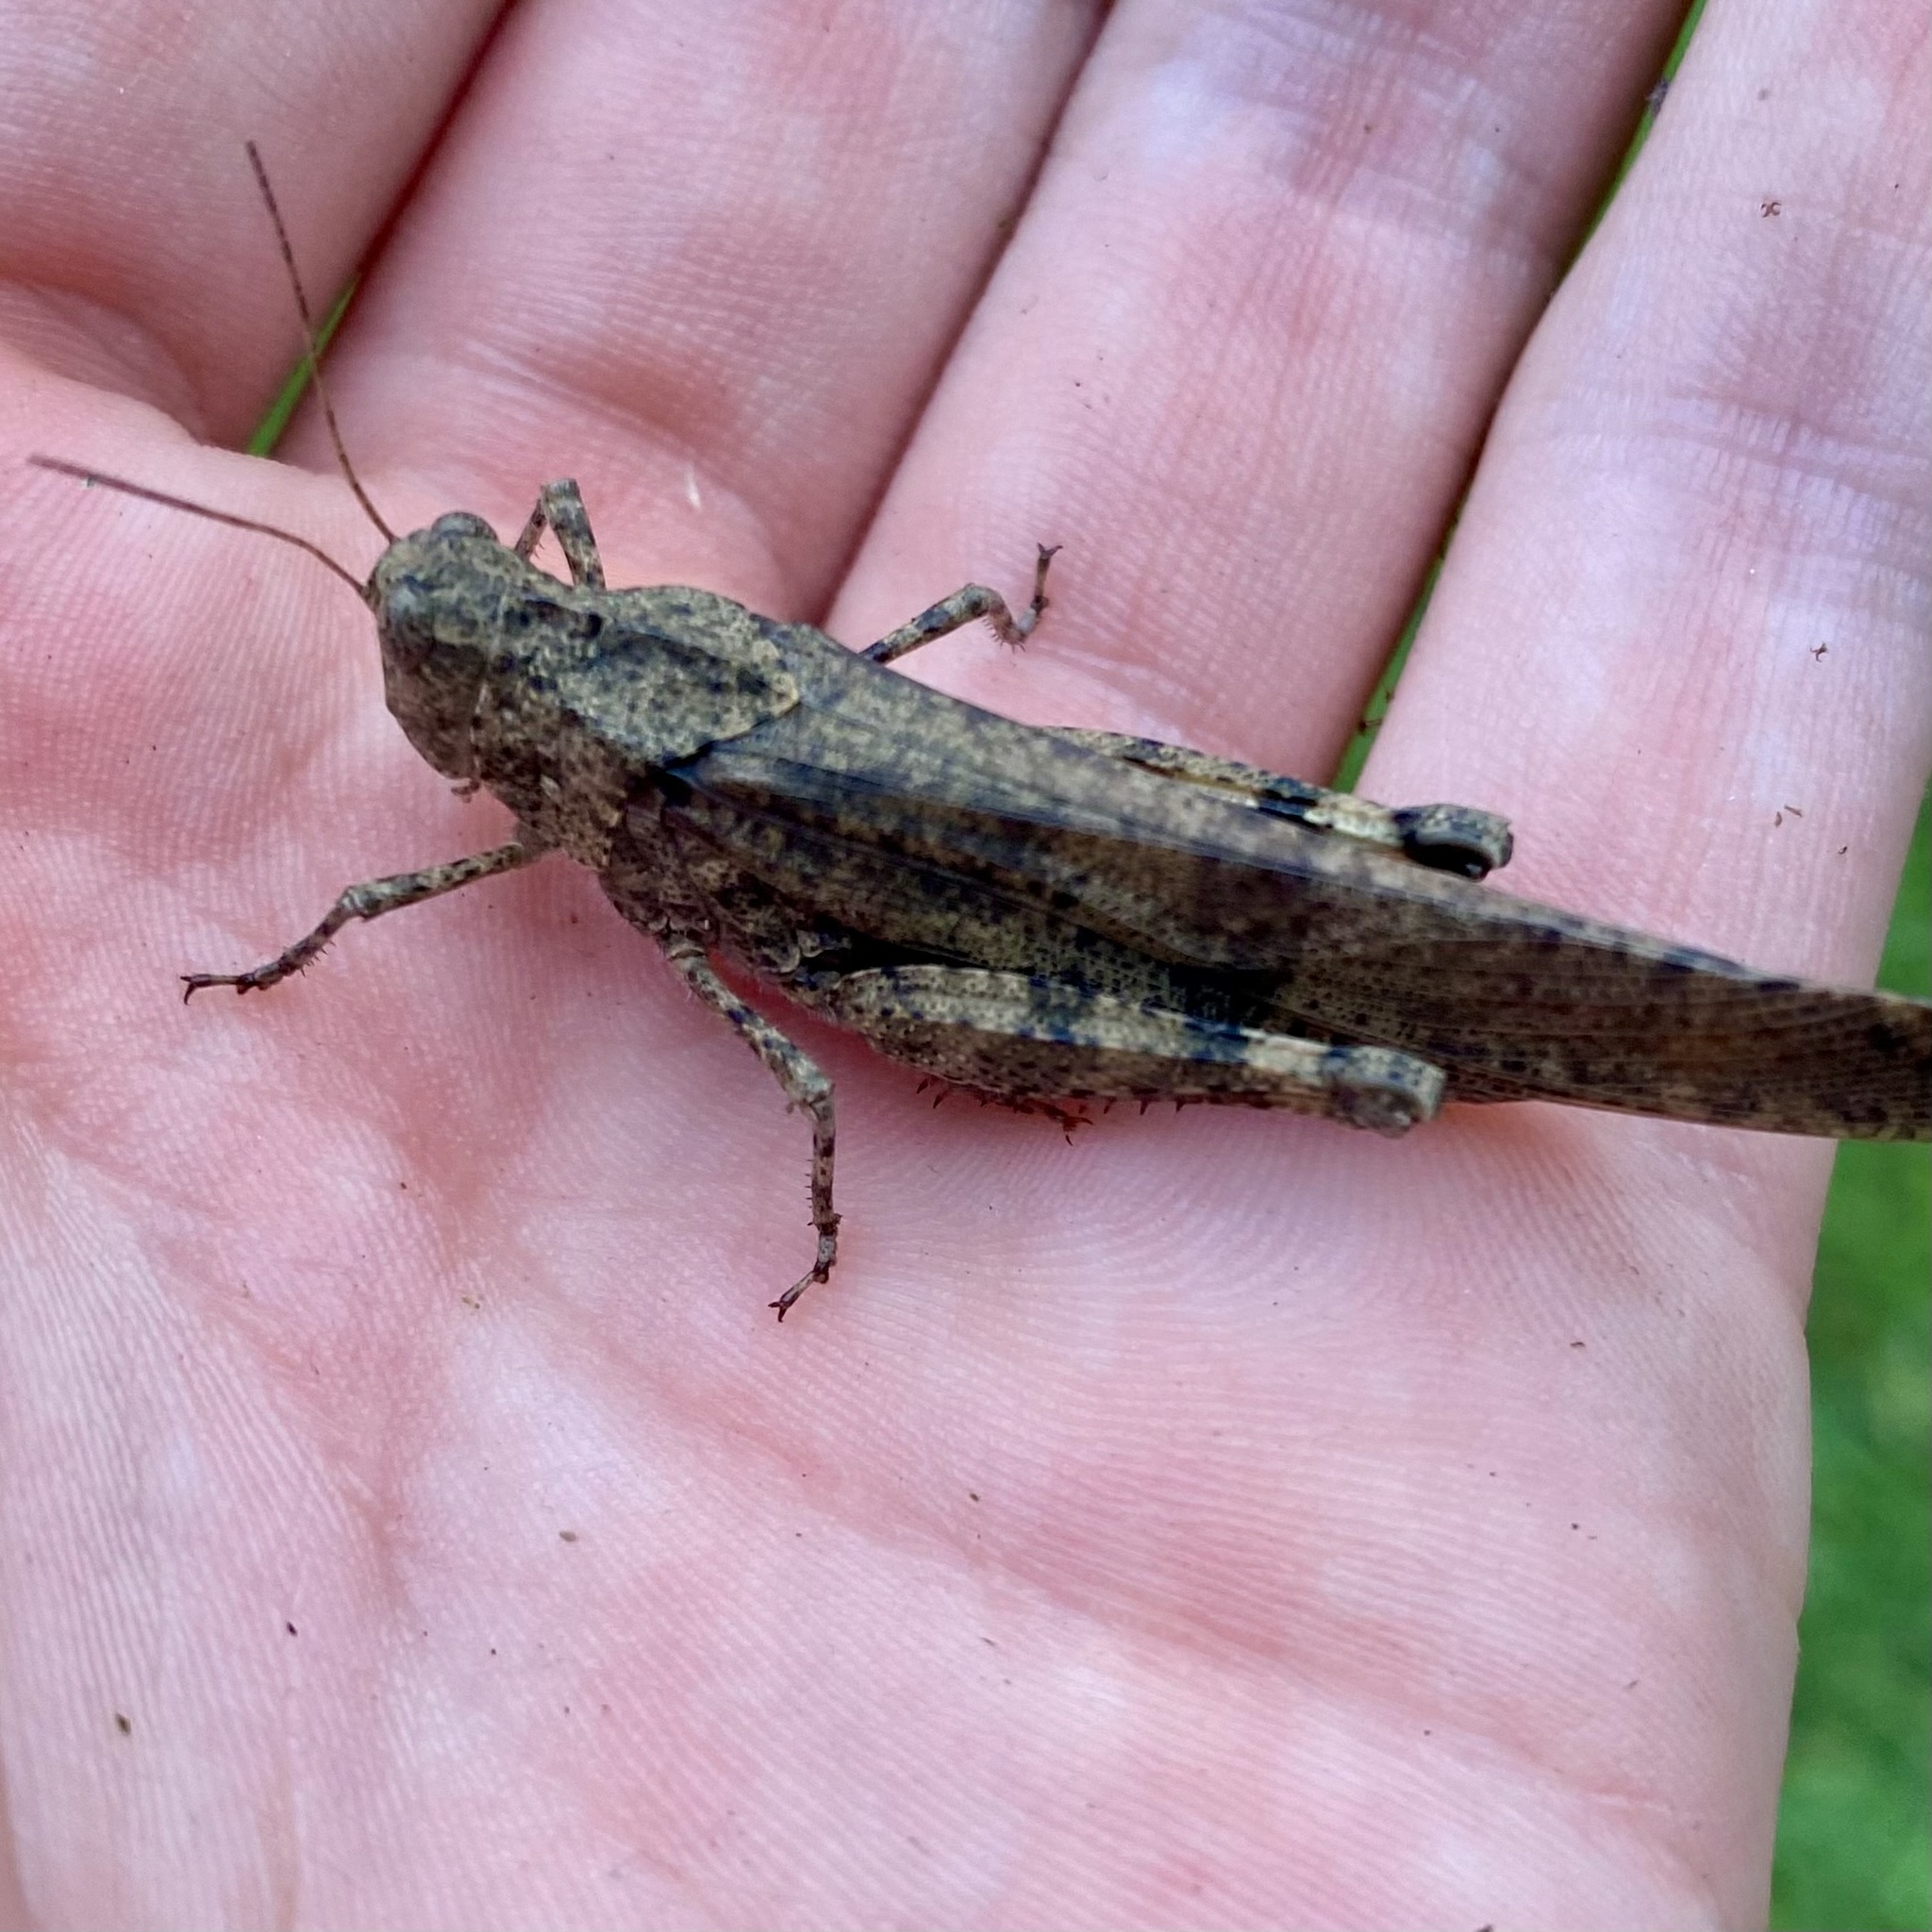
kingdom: Animalia
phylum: Arthropoda
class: Insecta
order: Orthoptera
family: Acrididae
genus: Dissosteira
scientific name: Dissosteira carolina
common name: Carolina grasshopper
